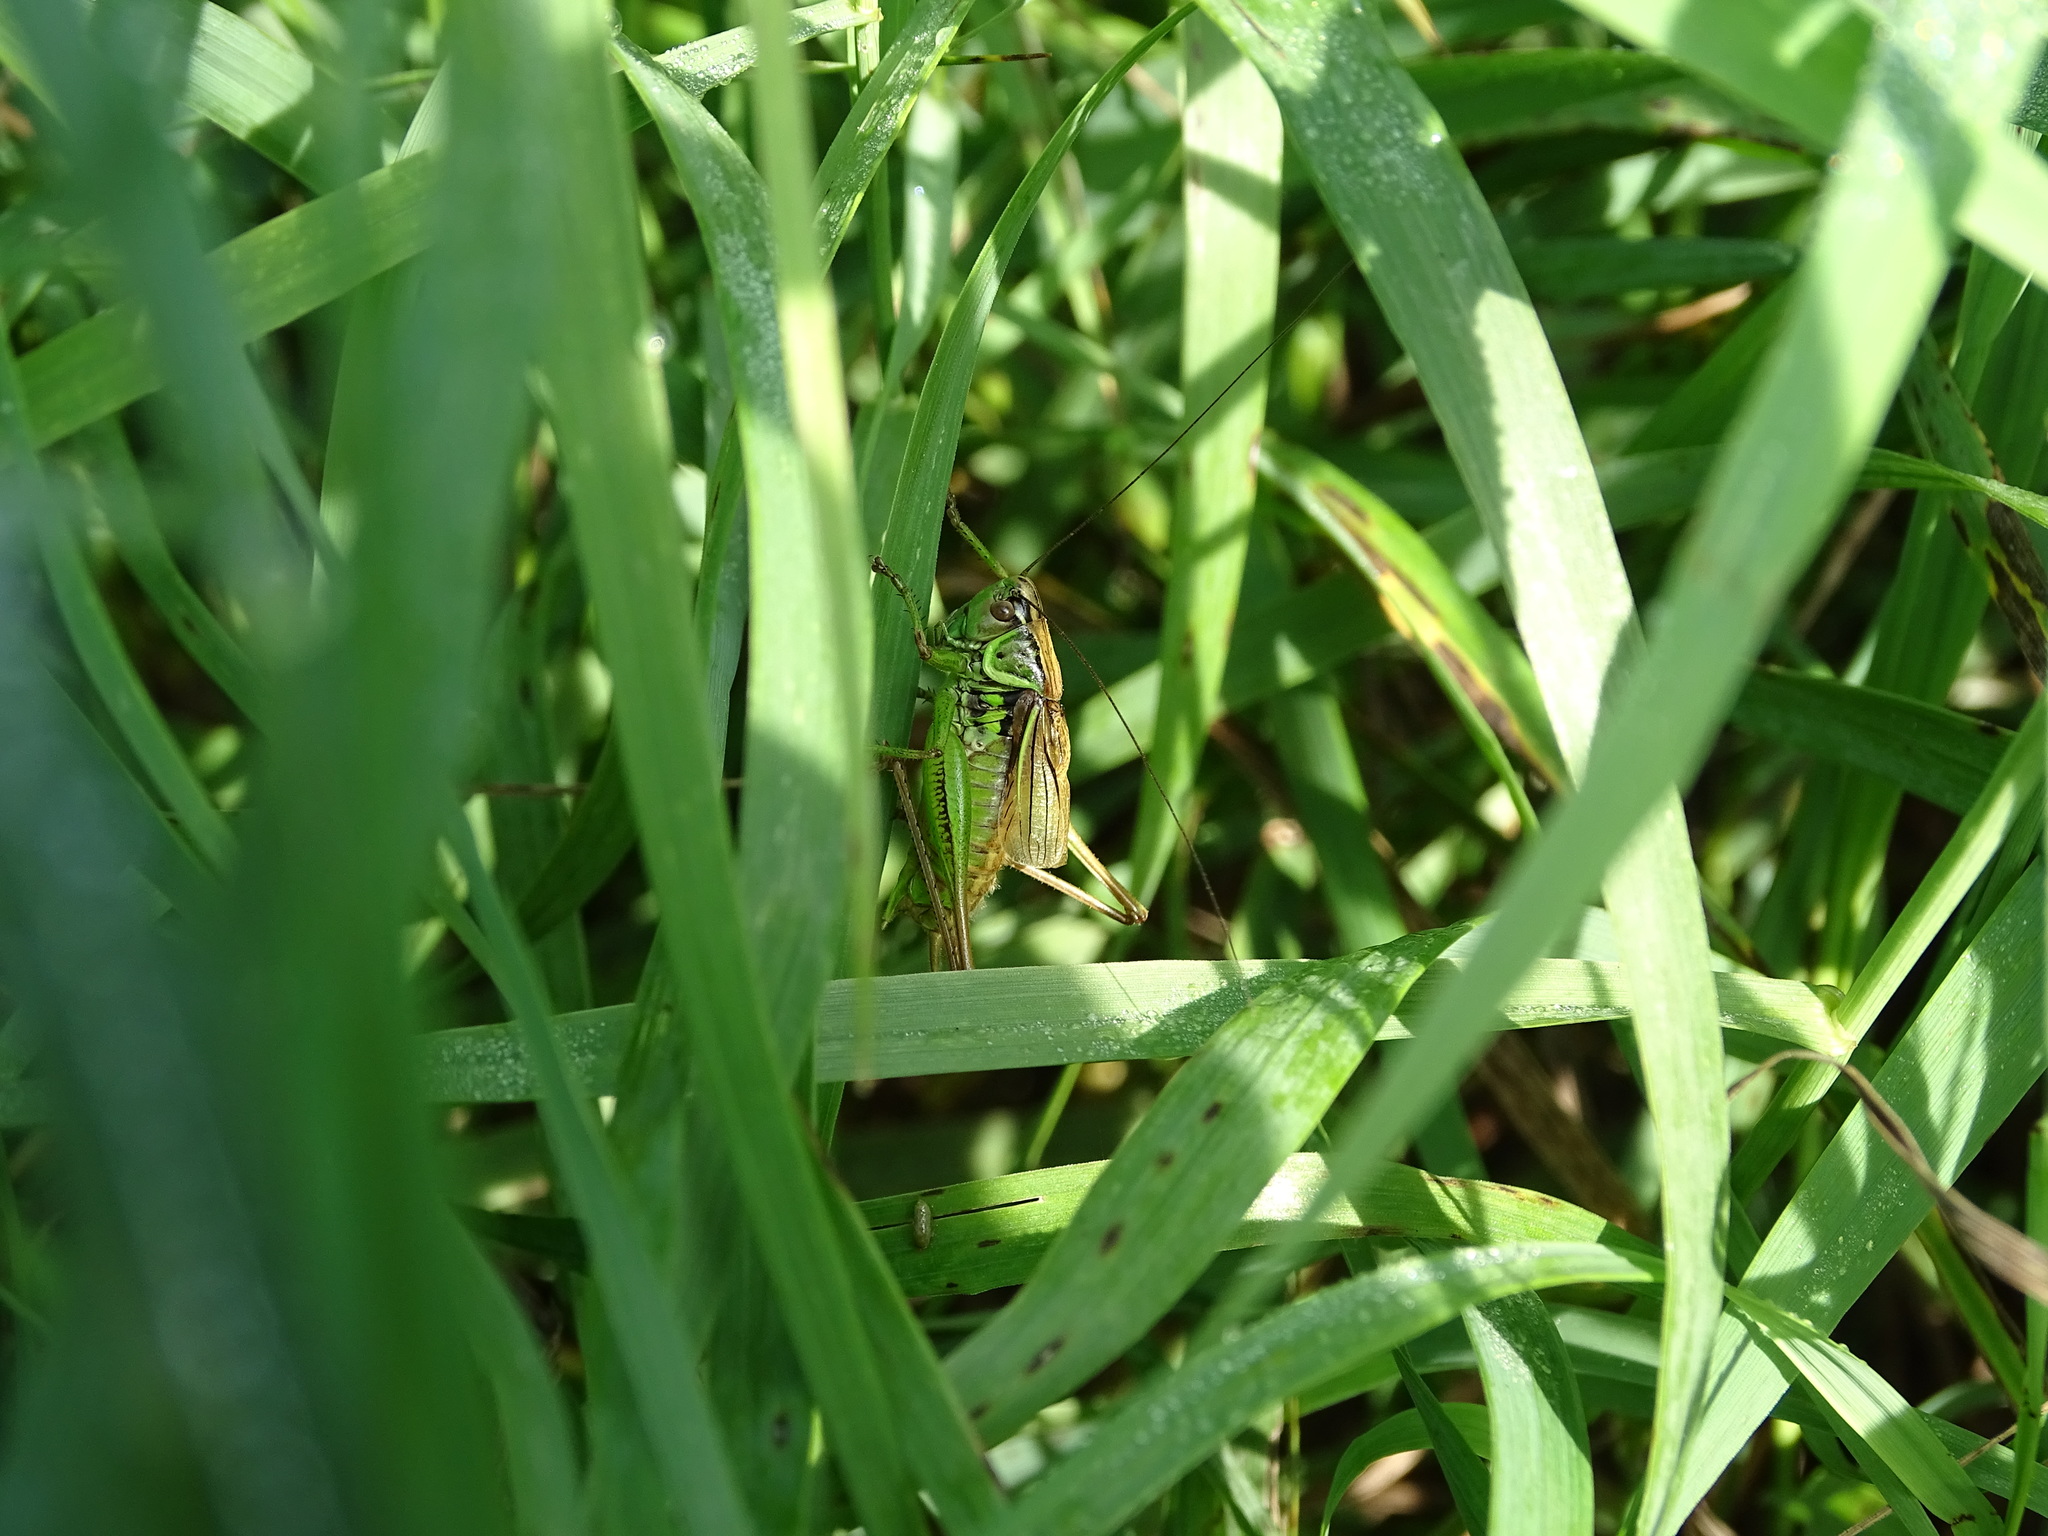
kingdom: Animalia
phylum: Arthropoda
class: Insecta
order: Orthoptera
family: Tettigoniidae
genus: Roeseliana
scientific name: Roeseliana roeselii
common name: Roesel's bush cricket
